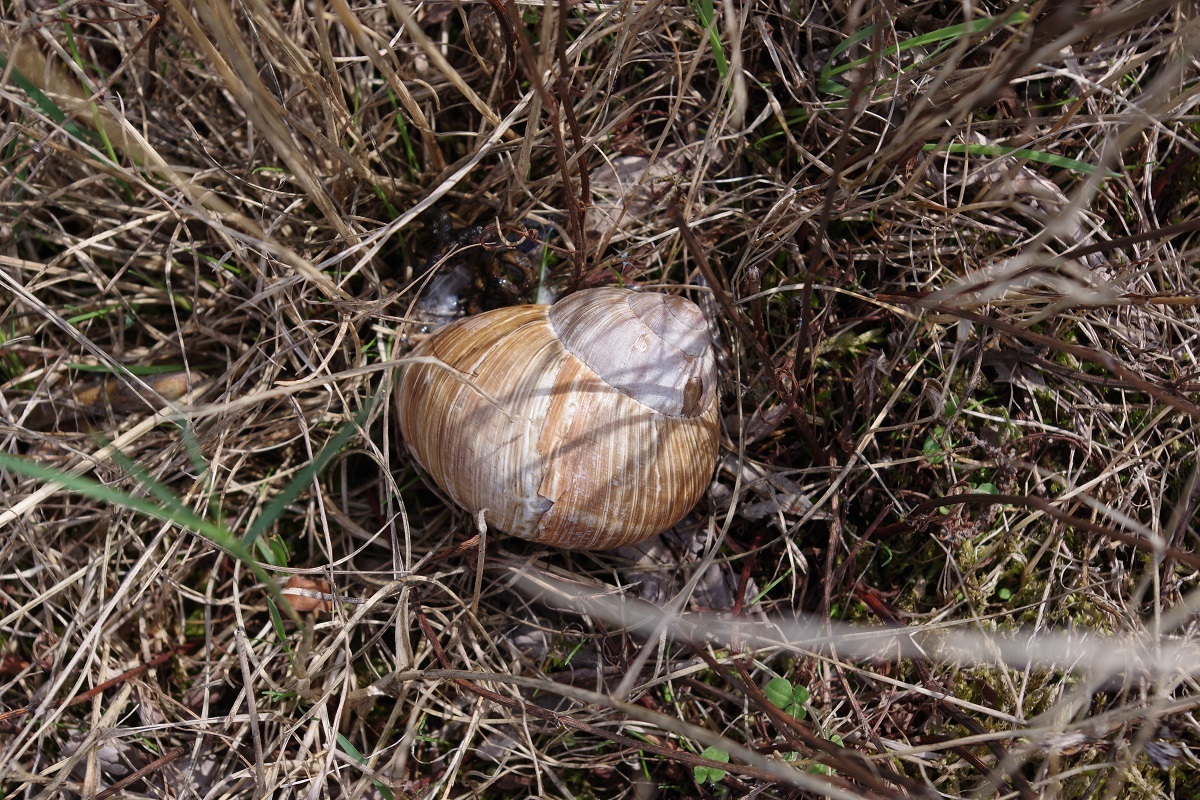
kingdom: Animalia
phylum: Mollusca
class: Gastropoda
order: Stylommatophora
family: Helicidae
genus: Helix
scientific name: Helix pomatia
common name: Roman snail
